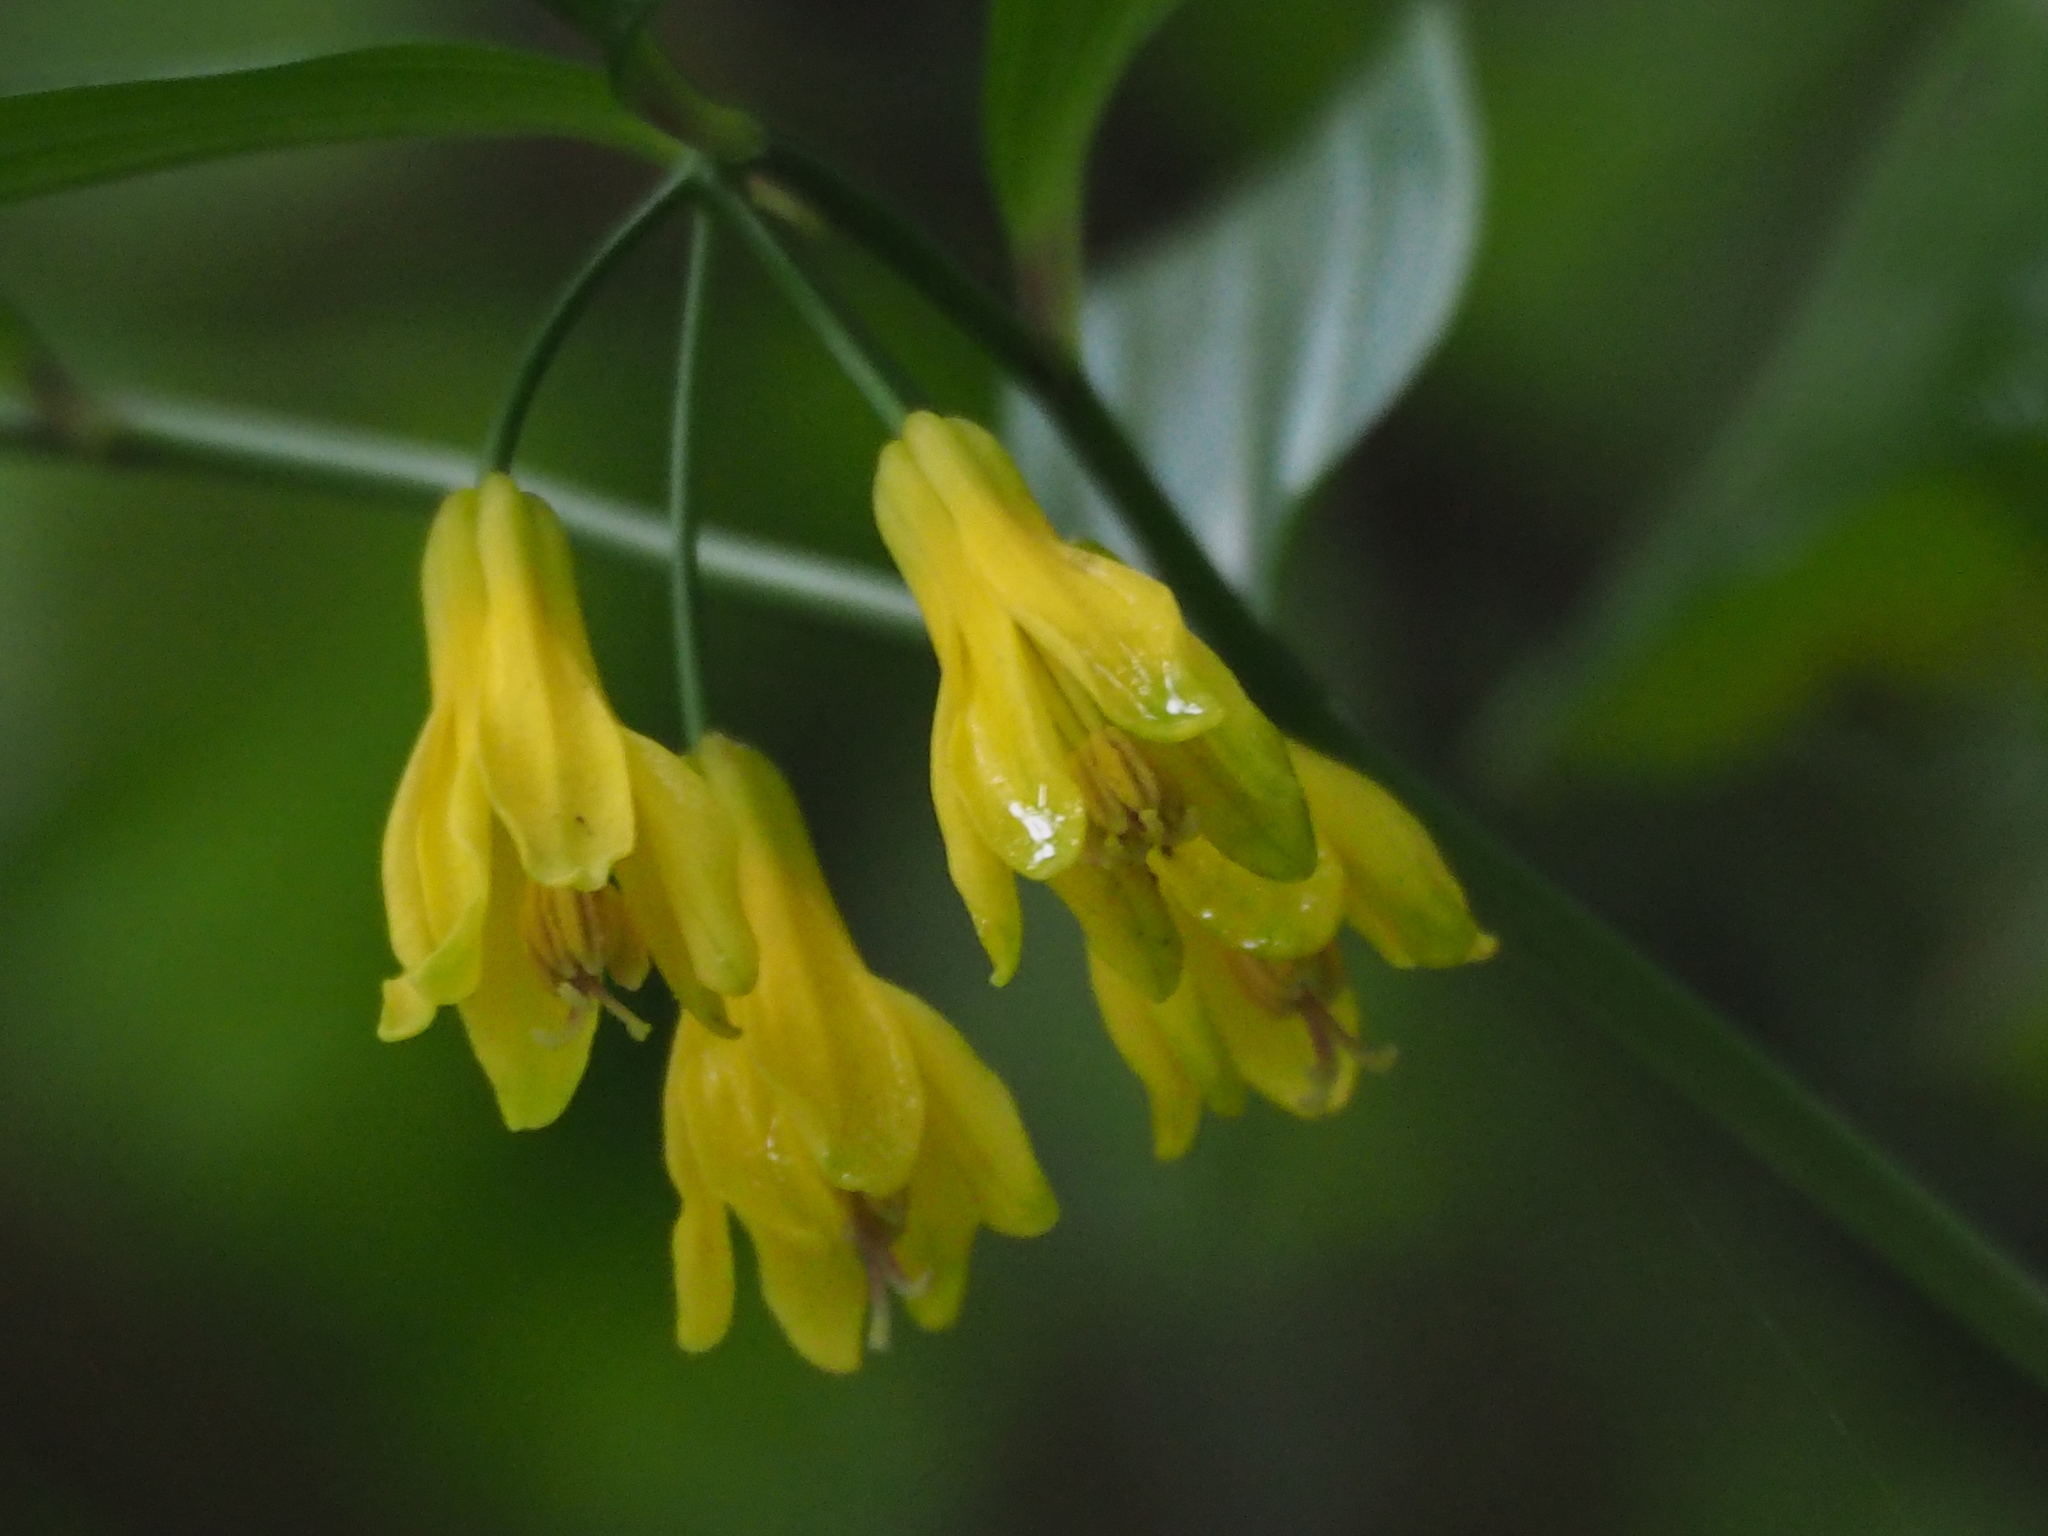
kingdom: Plantae
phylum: Tracheophyta
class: Liliopsida
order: Liliales
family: Colchicaceae
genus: Disporum
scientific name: Disporum shimadae
